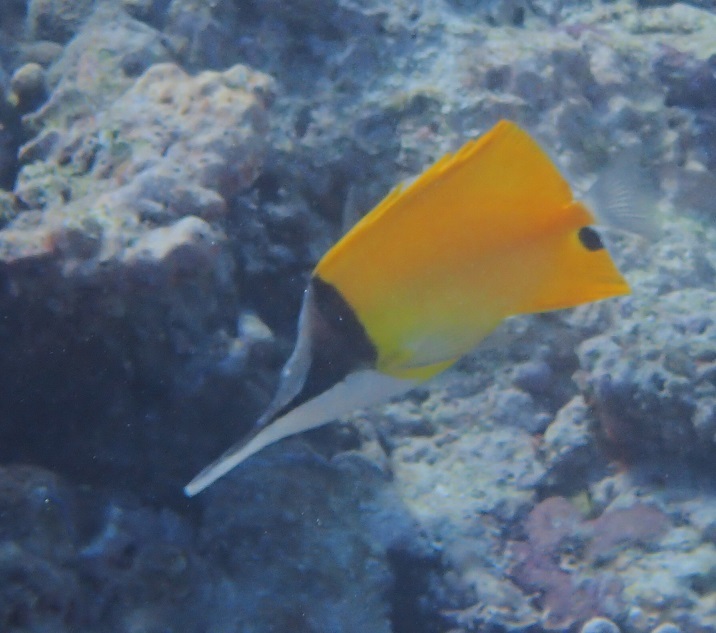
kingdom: Animalia
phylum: Chordata
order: Perciformes
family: Chaetodontidae
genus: Forcipiger
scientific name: Forcipiger longirostris
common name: Longnose butterflyfish
